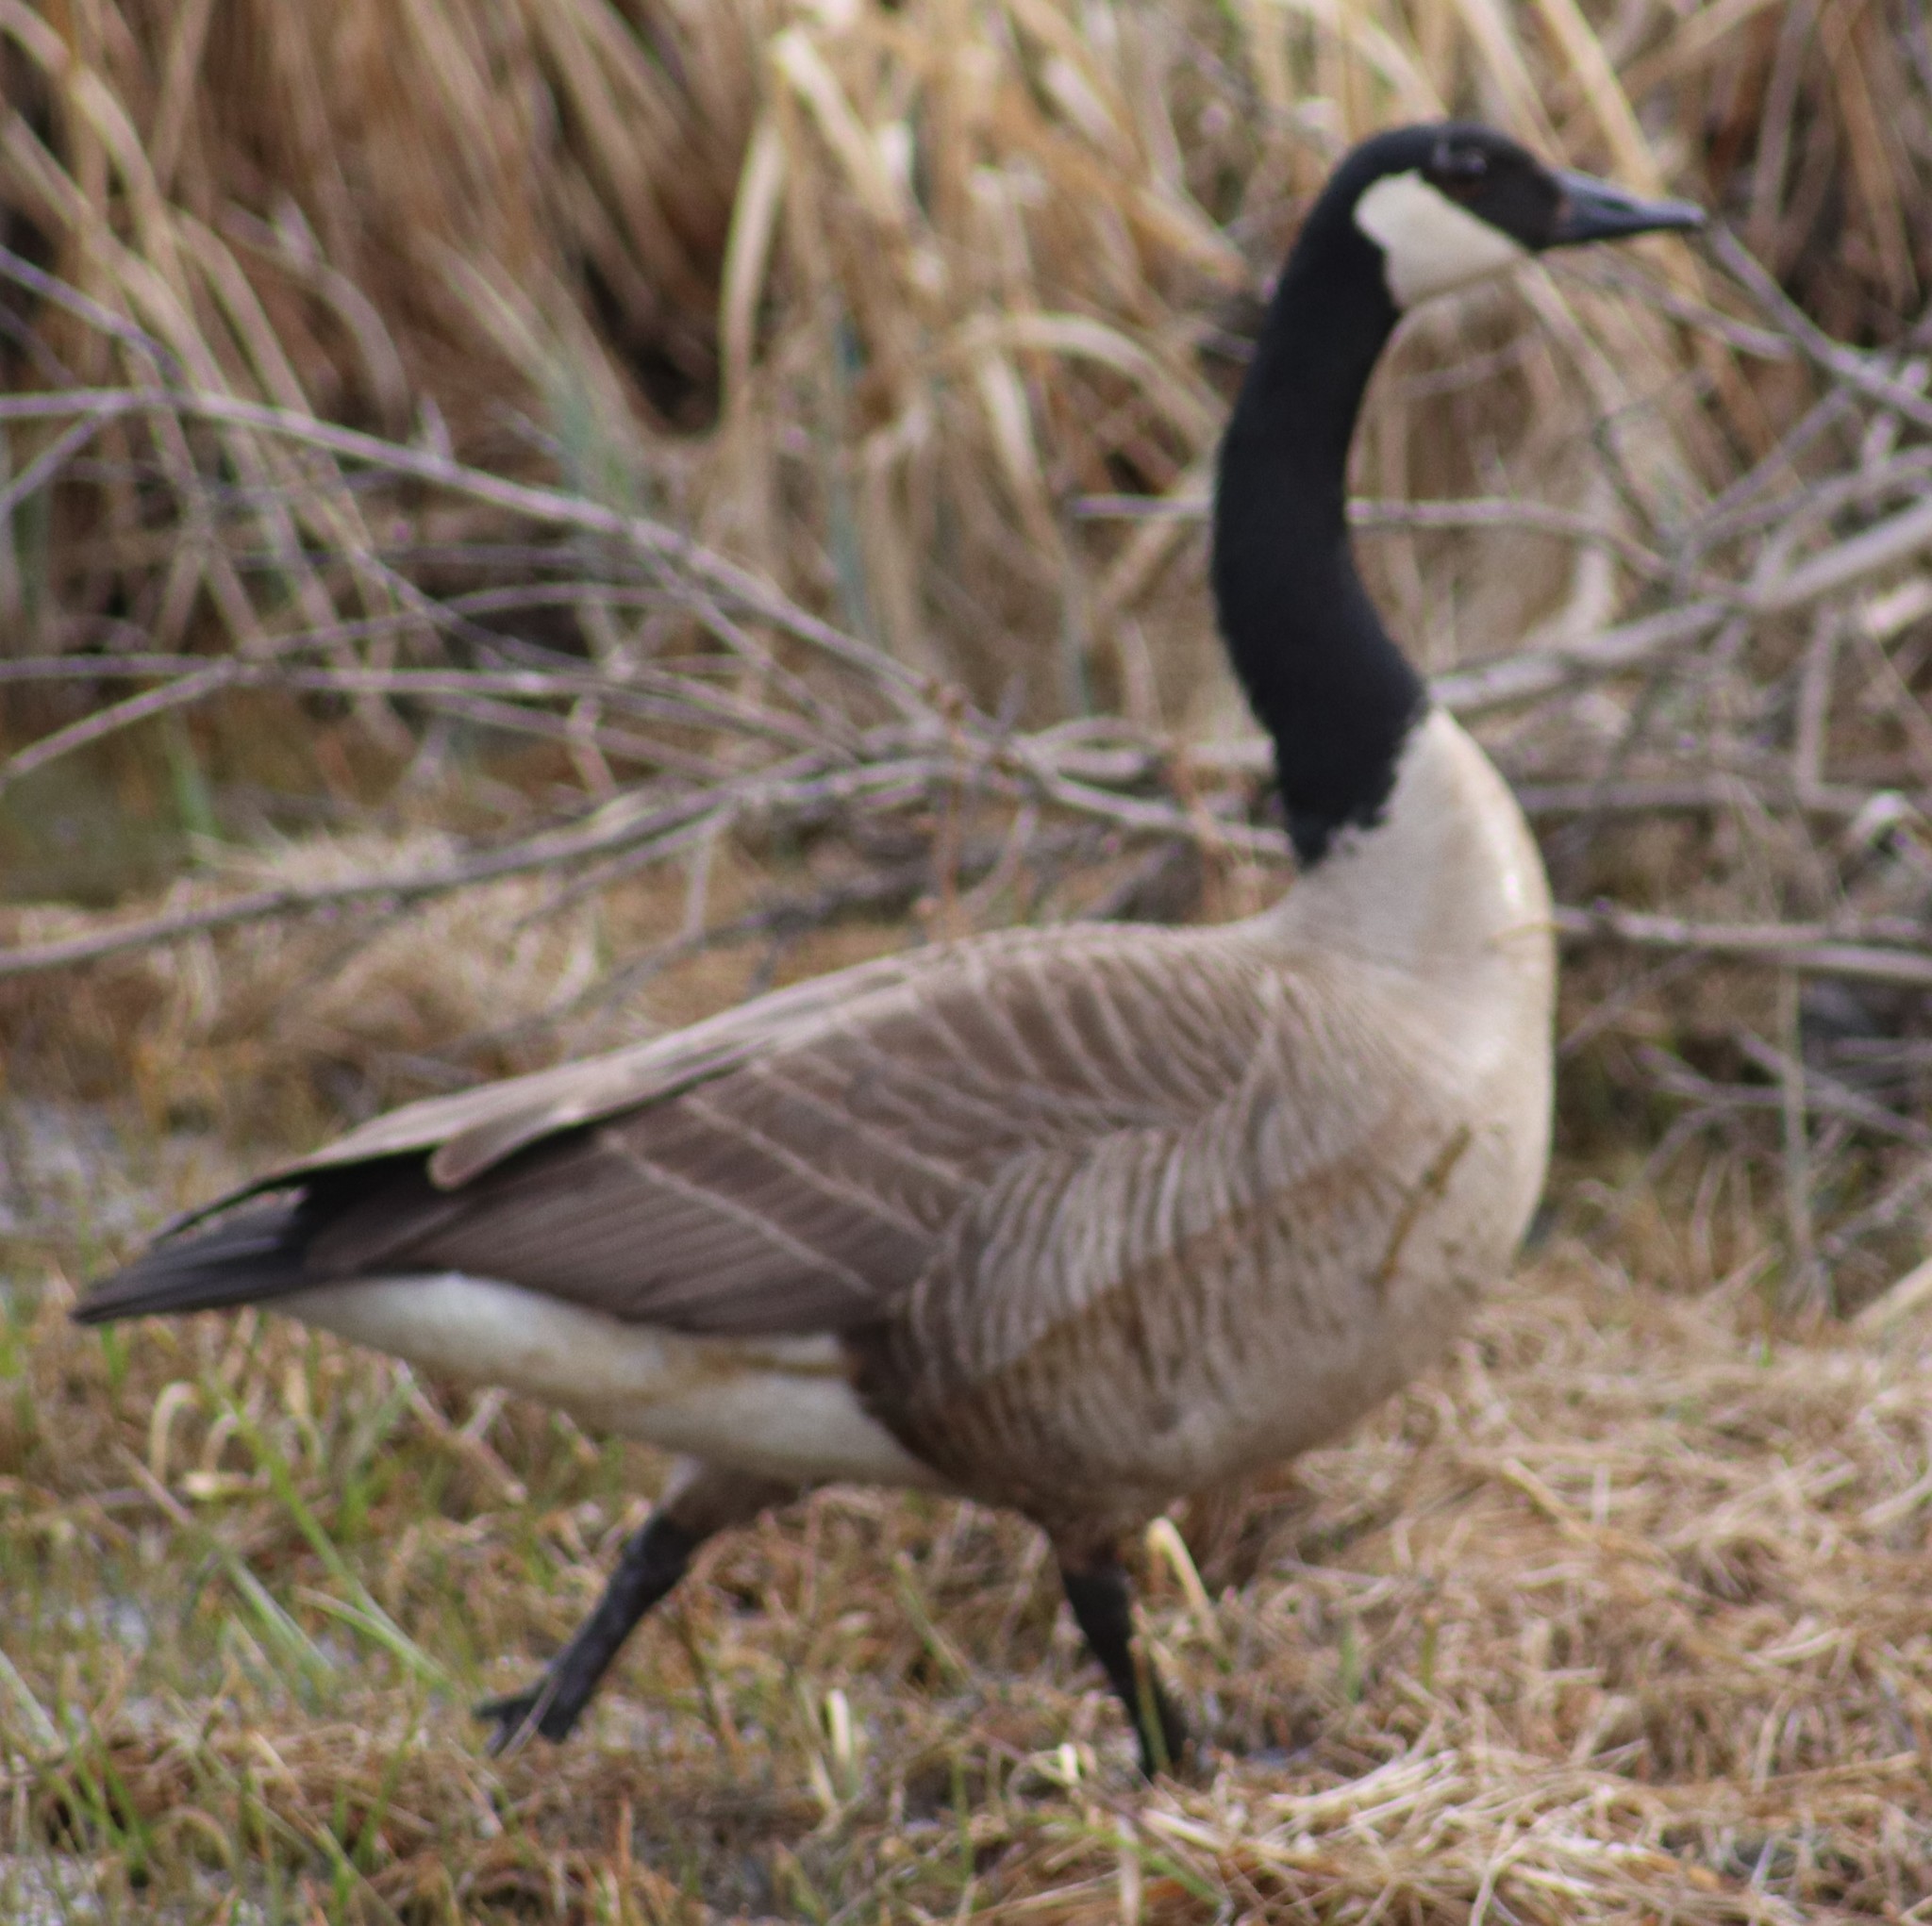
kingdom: Animalia
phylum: Chordata
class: Aves
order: Anseriformes
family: Anatidae
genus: Branta
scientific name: Branta canadensis
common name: Canada goose
